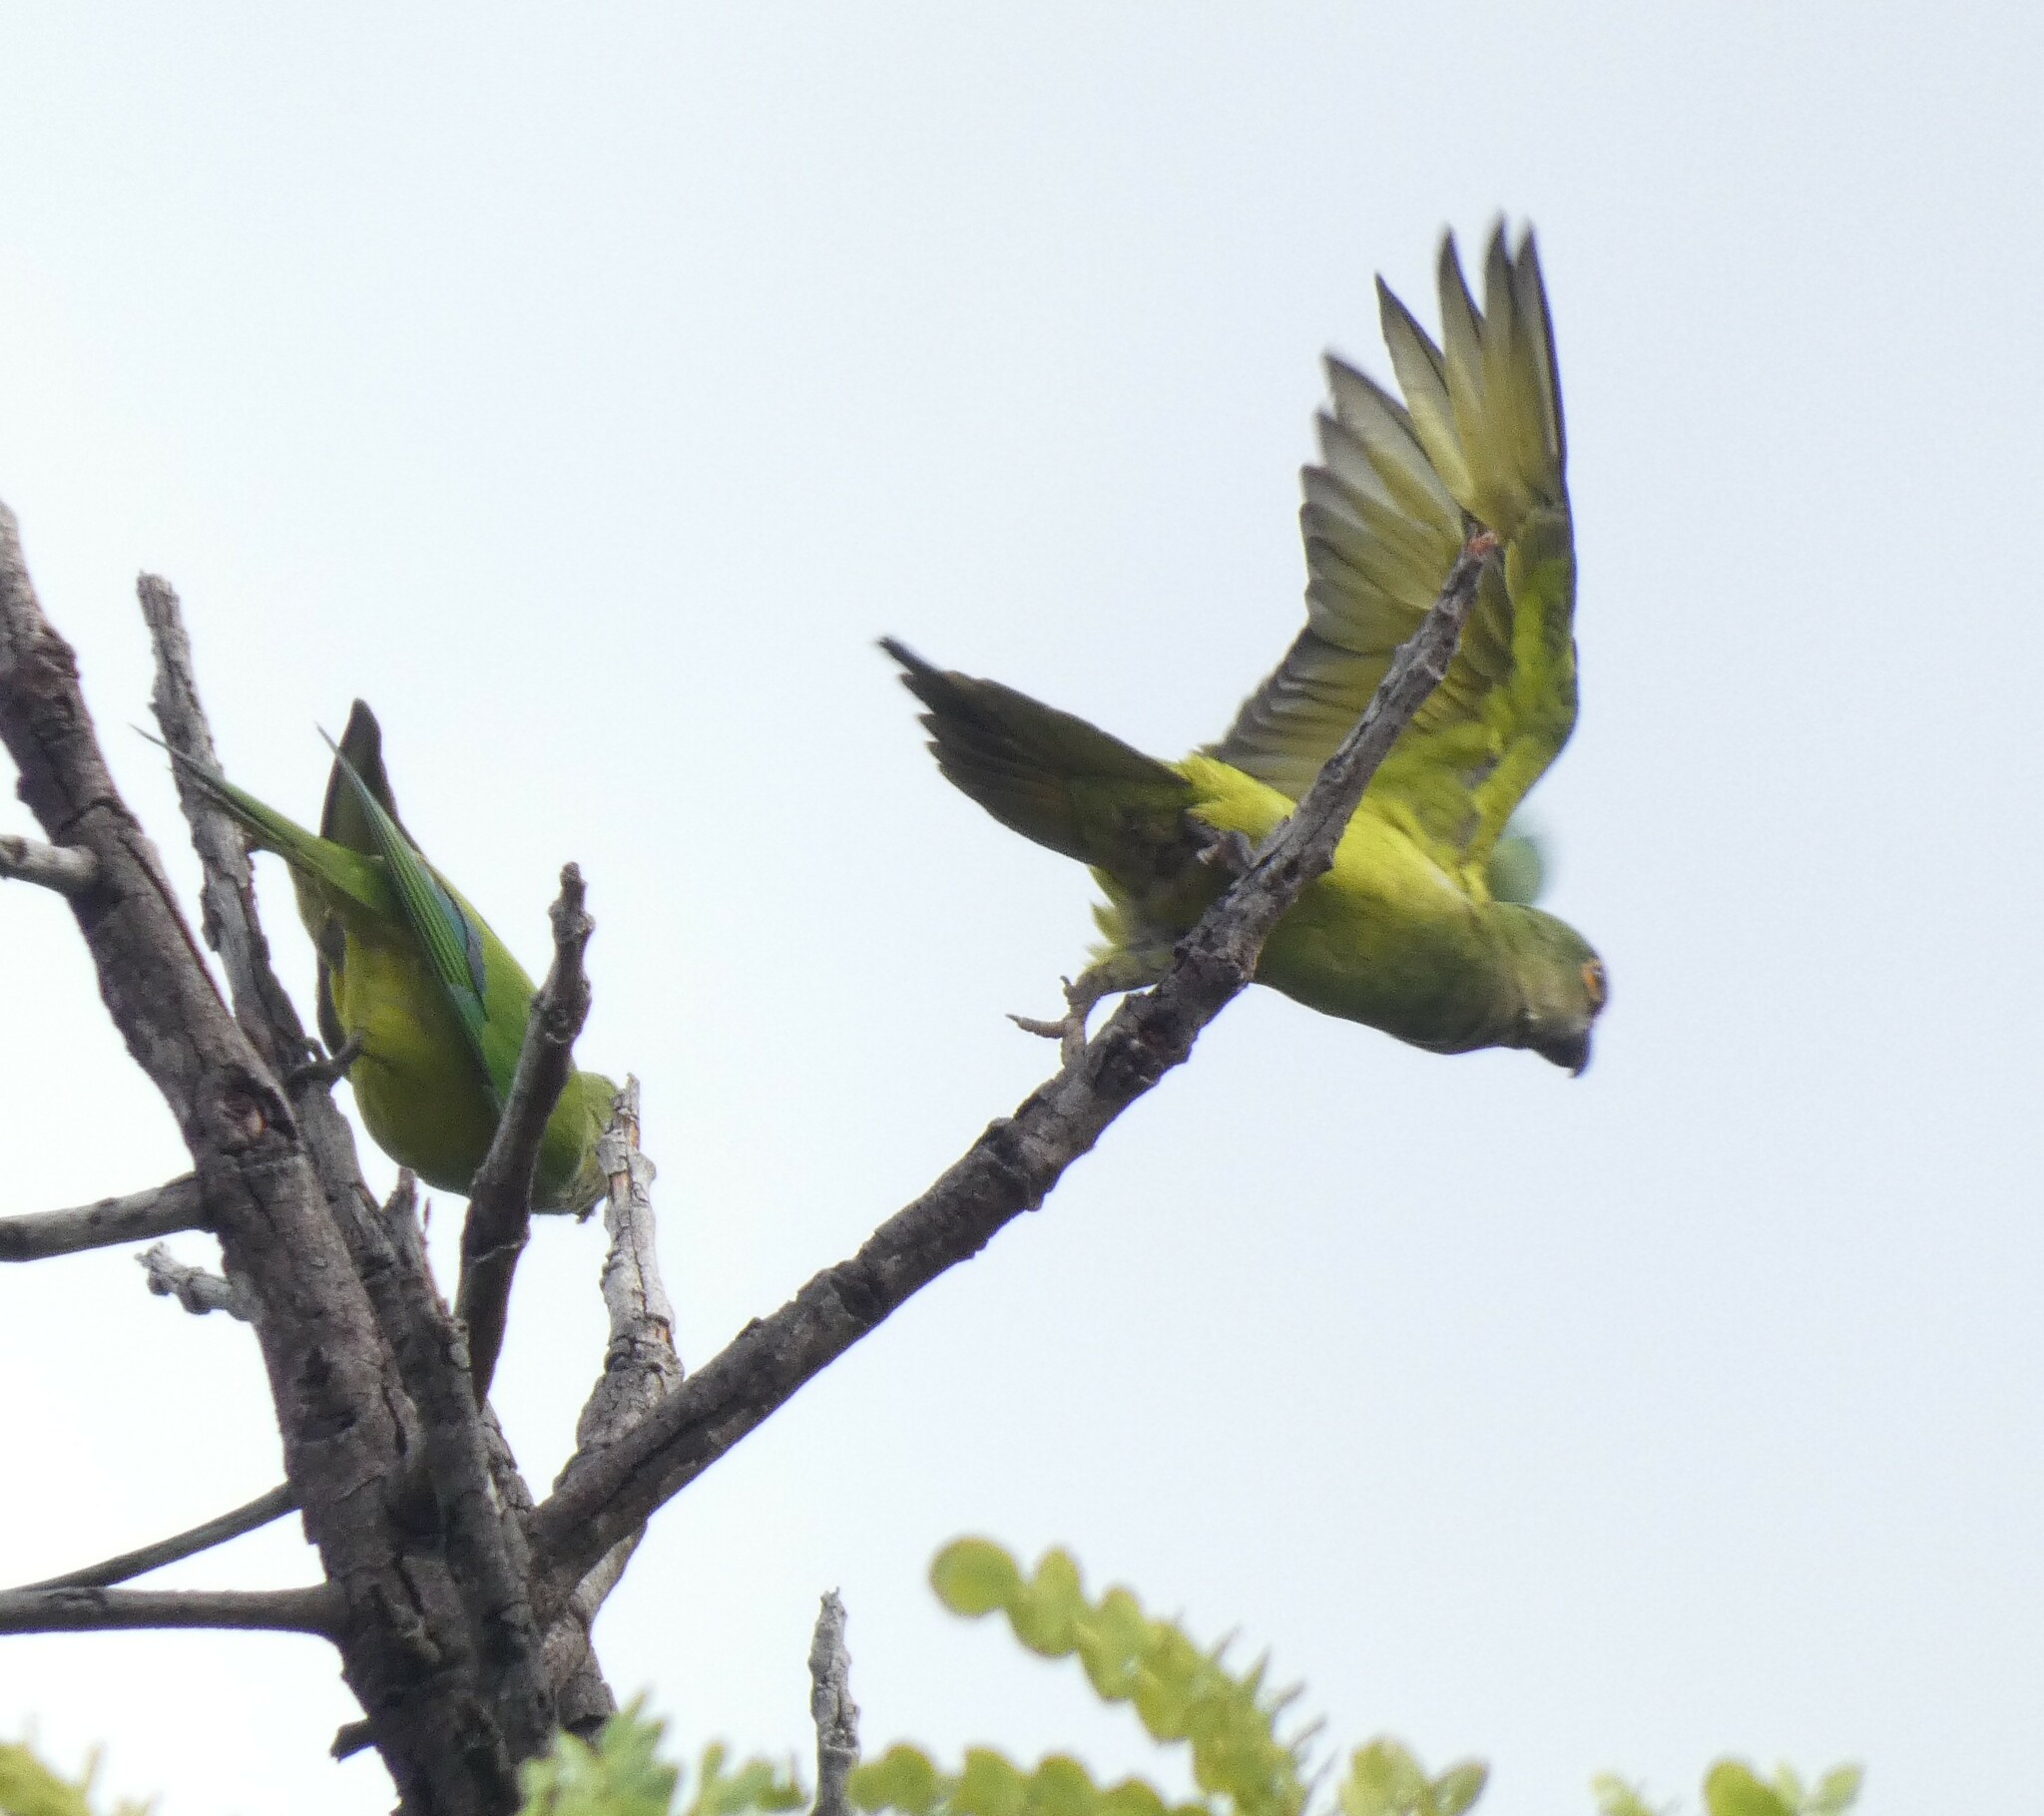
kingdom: Animalia
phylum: Chordata
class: Aves
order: Psittaciformes
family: Psittacidae
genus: Aratinga
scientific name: Aratinga aurea
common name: Peach-fronted parakeet
